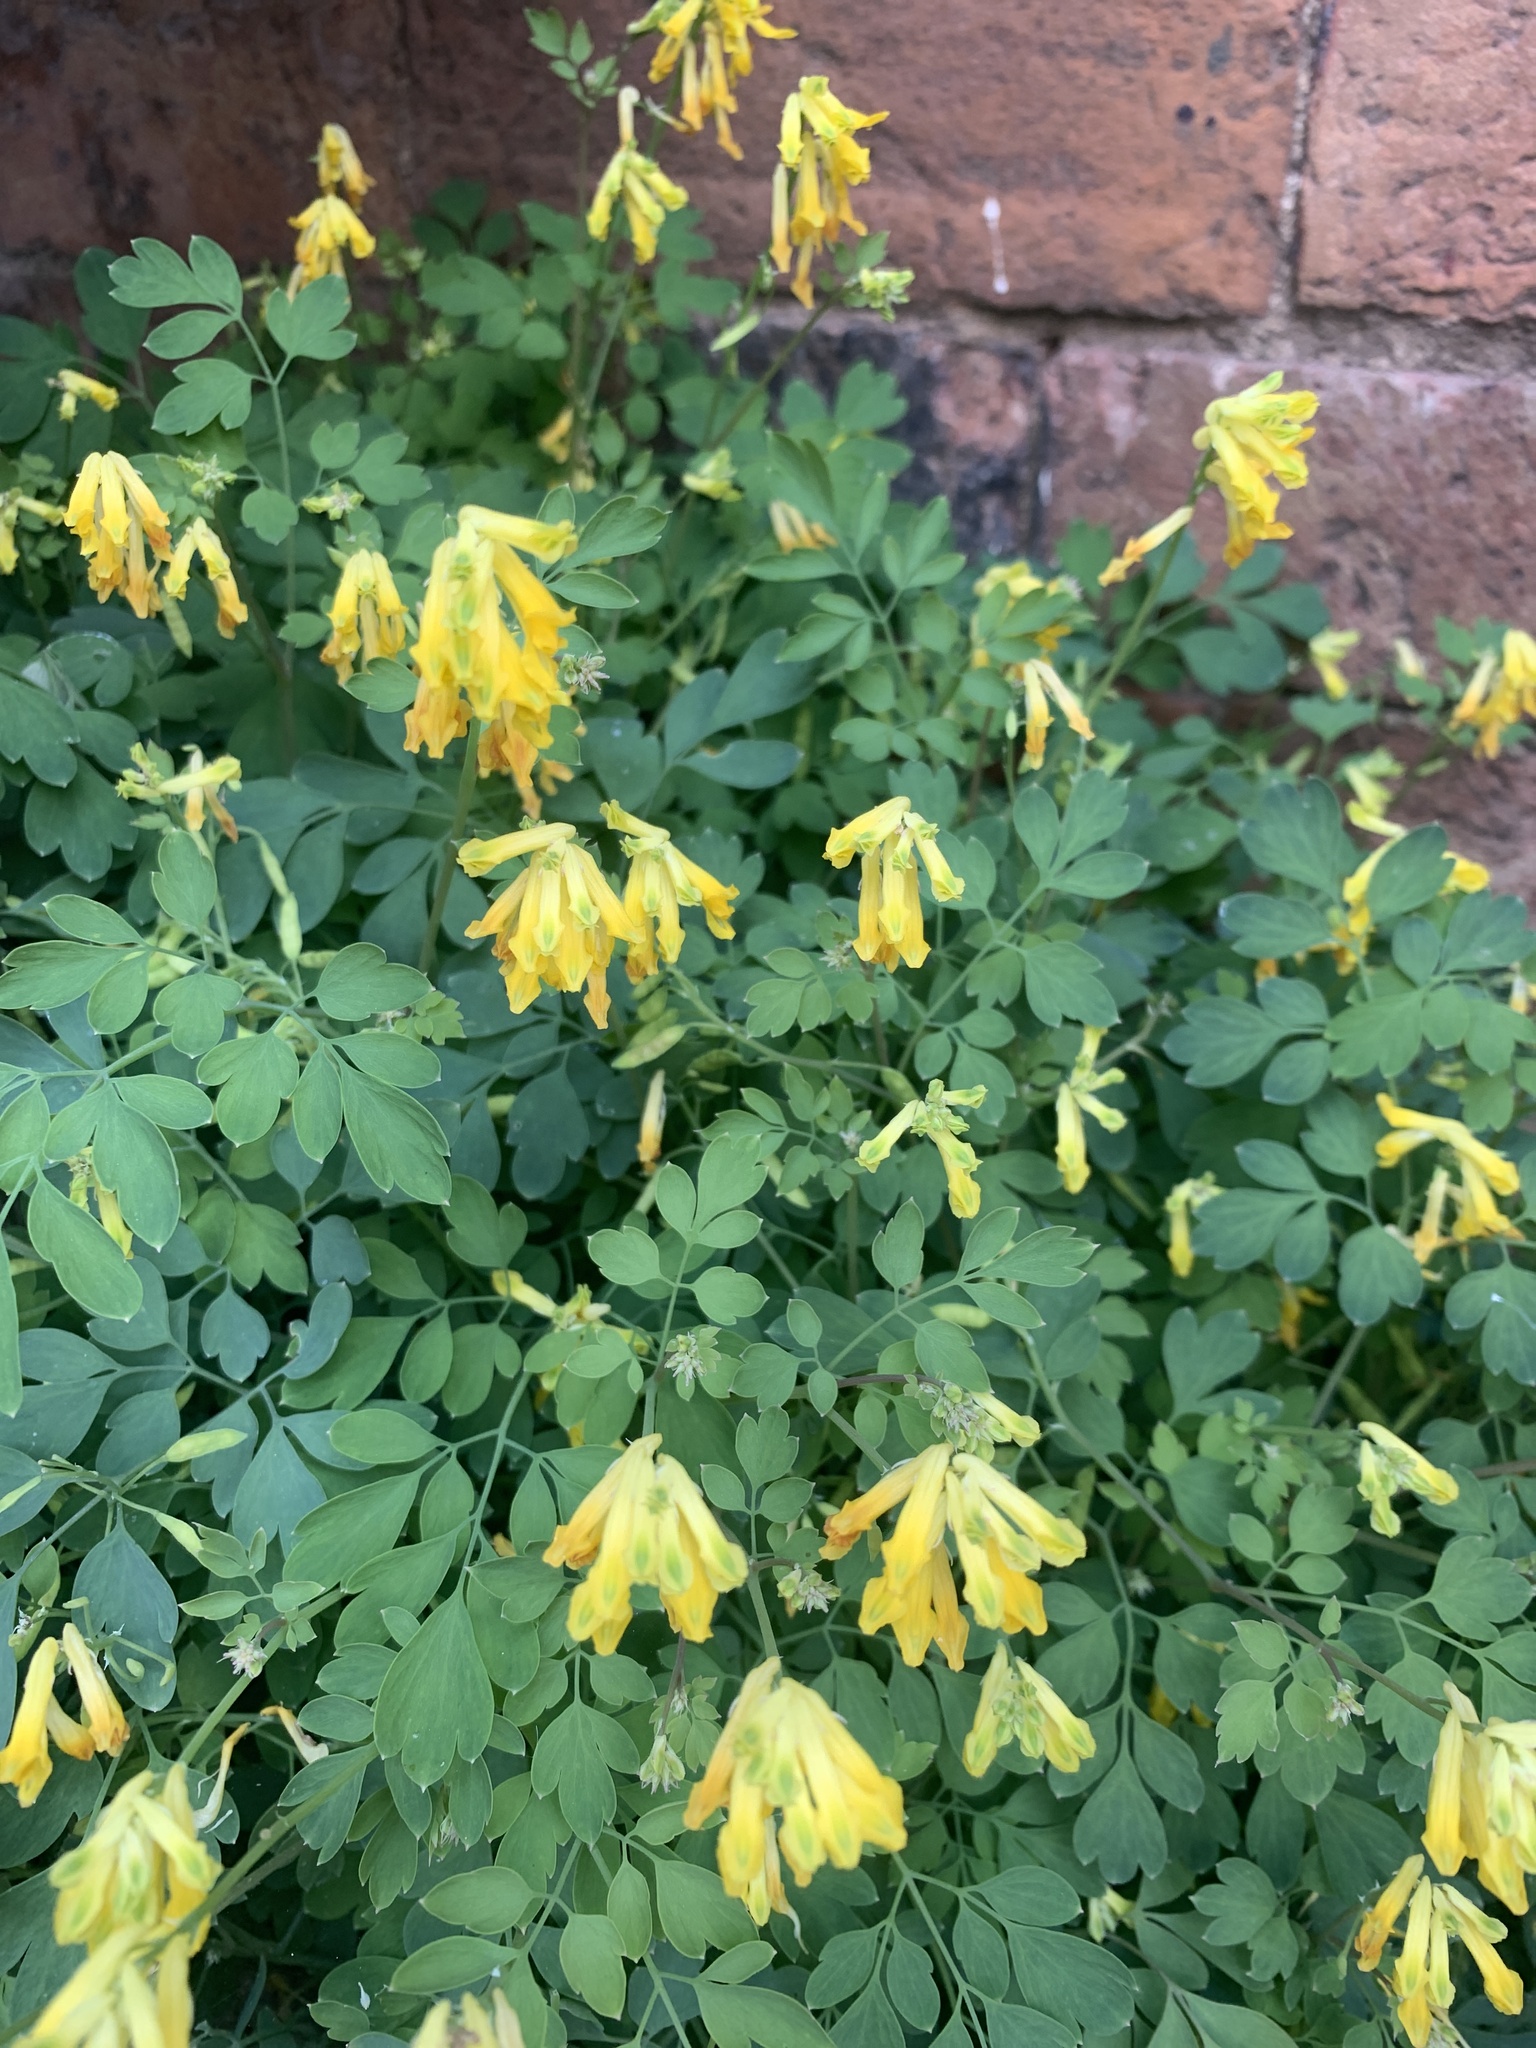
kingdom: Plantae
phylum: Tracheophyta
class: Magnoliopsida
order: Ranunculales
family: Papaveraceae
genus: Pseudofumaria
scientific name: Pseudofumaria lutea
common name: Yellow corydalis
